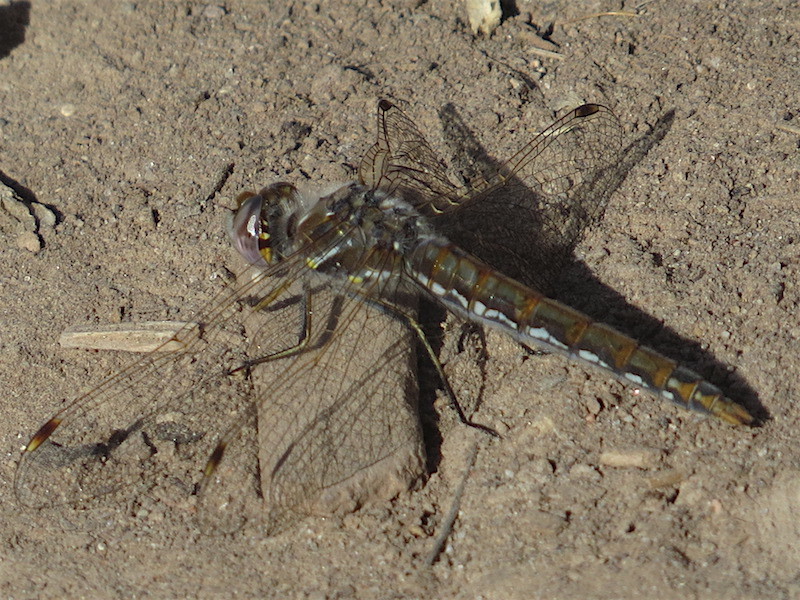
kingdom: Animalia
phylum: Arthropoda
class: Insecta
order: Odonata
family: Libellulidae
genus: Sympetrum
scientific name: Sympetrum corruptum
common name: Variegated meadowhawk
